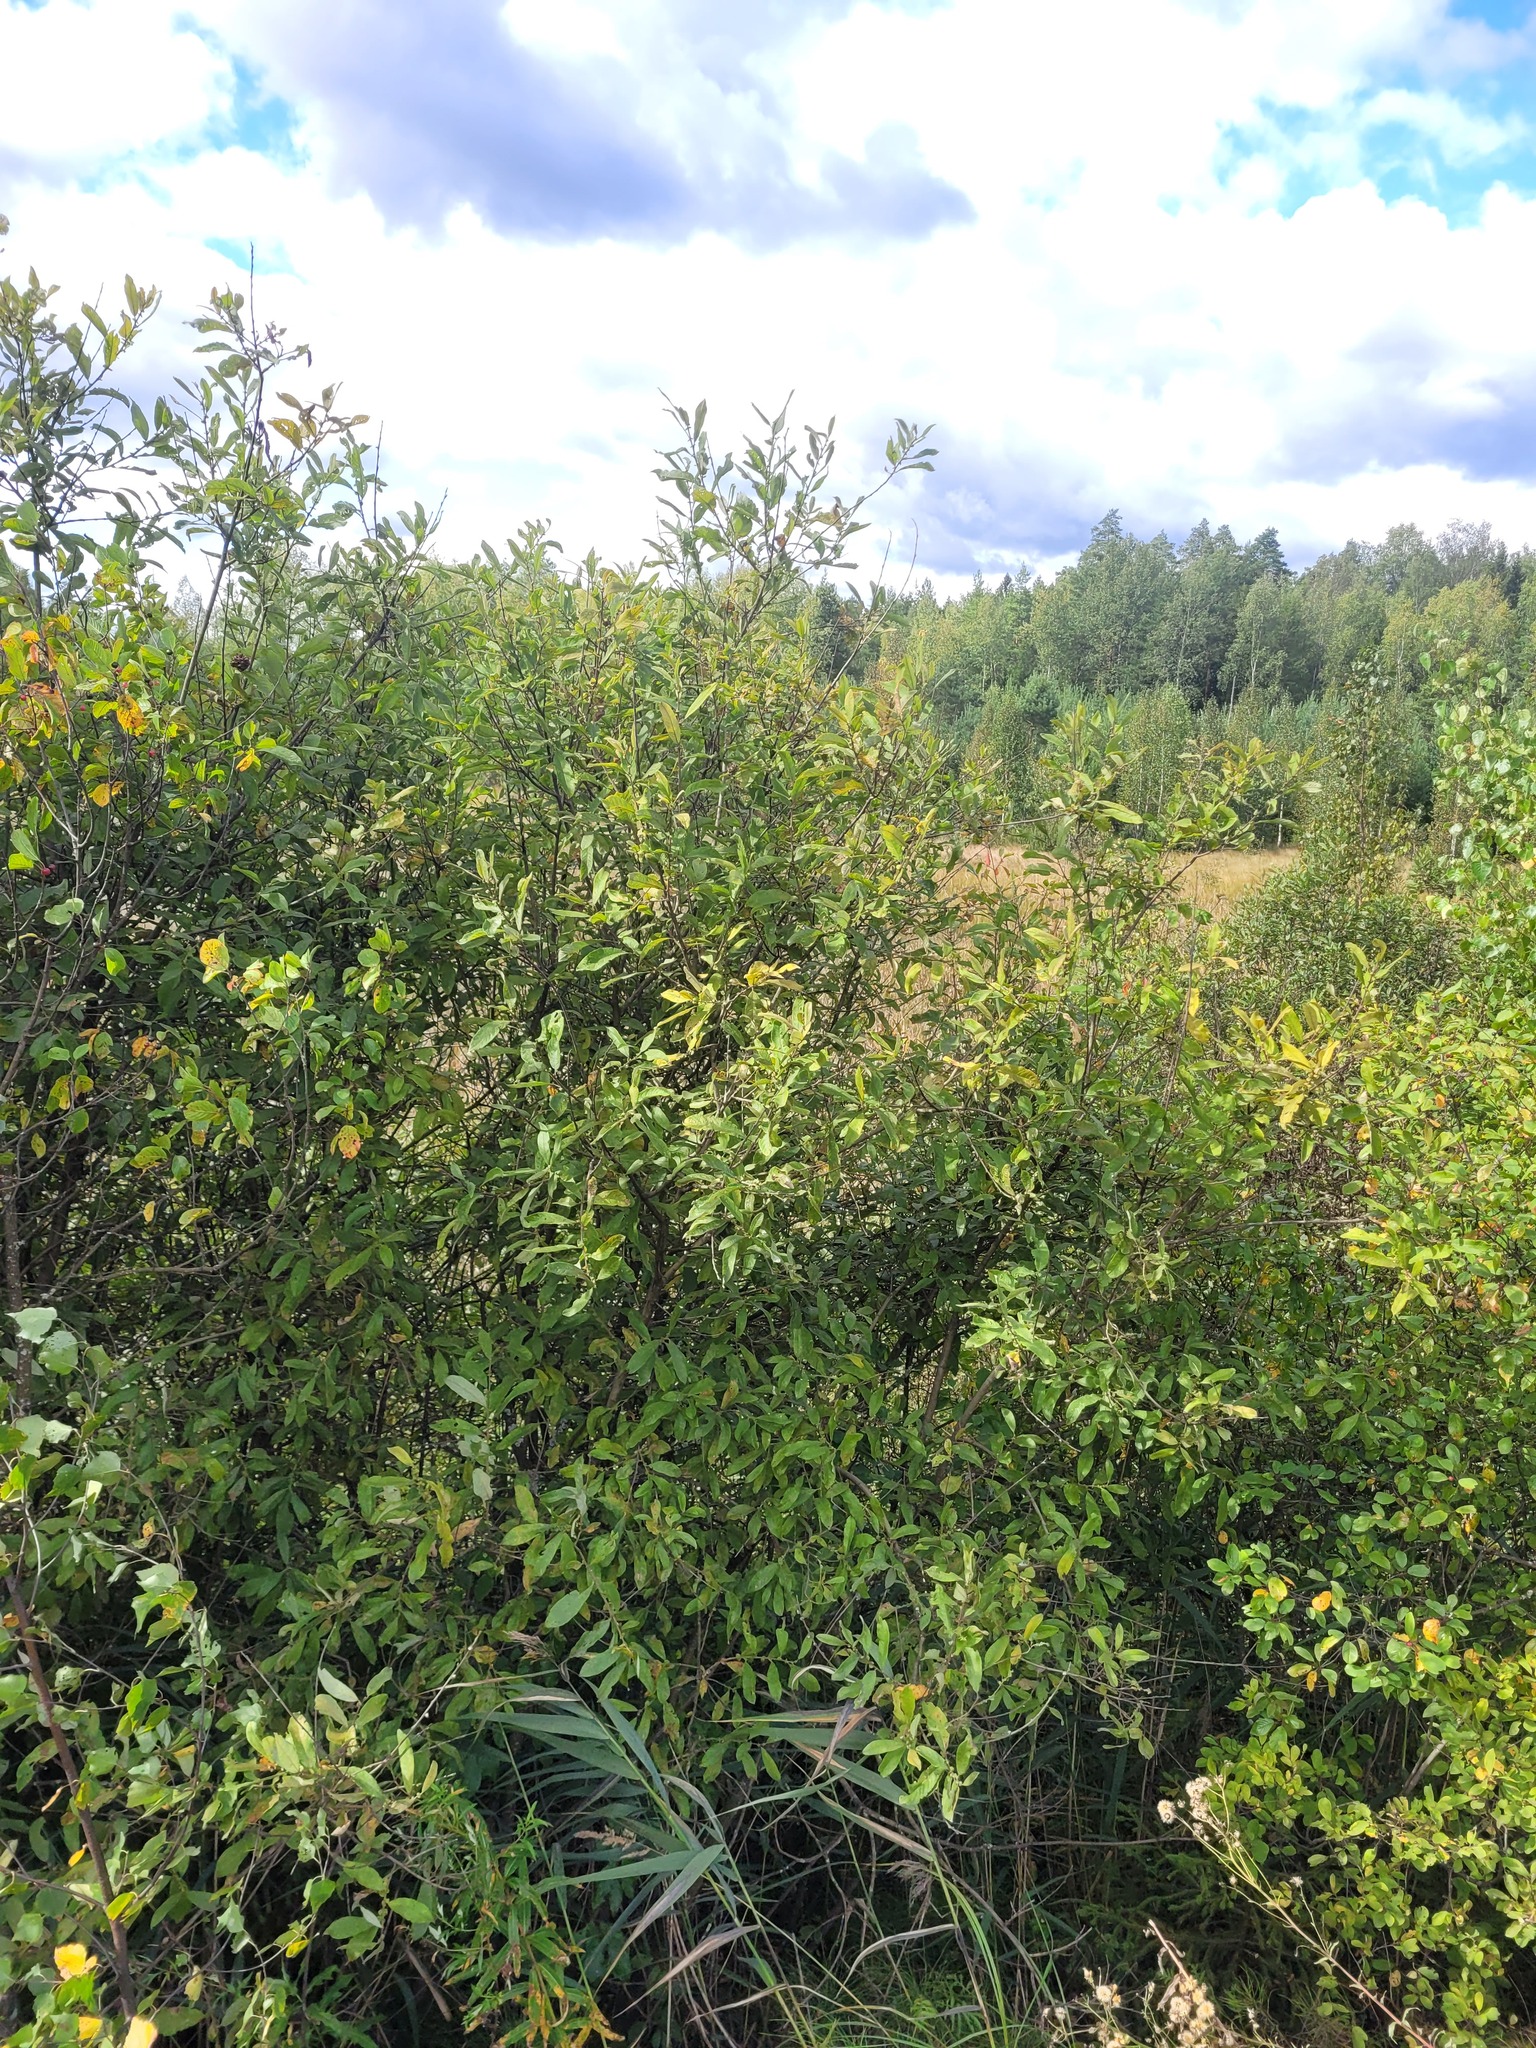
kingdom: Plantae
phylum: Tracheophyta
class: Magnoliopsida
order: Malpighiales
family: Salicaceae
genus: Salix
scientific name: Salix cinerea
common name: Common sallow
